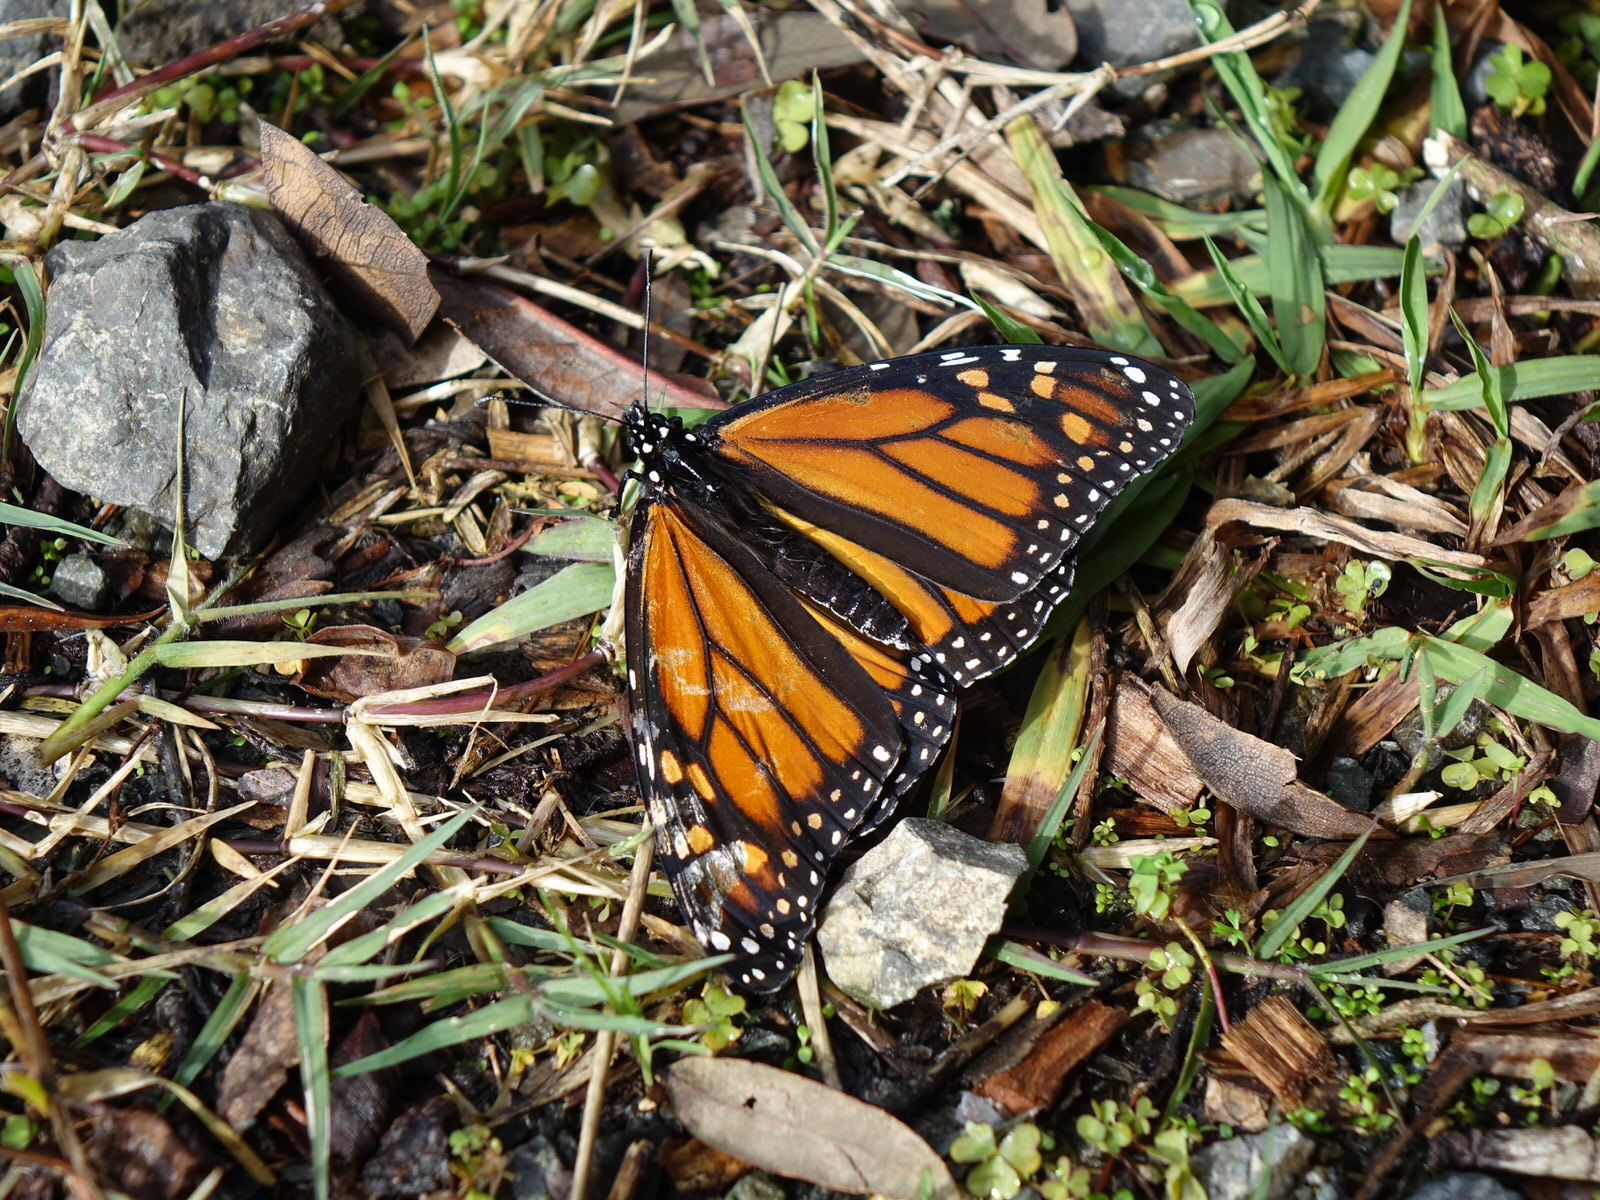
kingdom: Animalia
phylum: Arthropoda
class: Insecta
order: Lepidoptera
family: Nymphalidae
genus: Danaus
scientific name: Danaus plexippus
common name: Monarch
